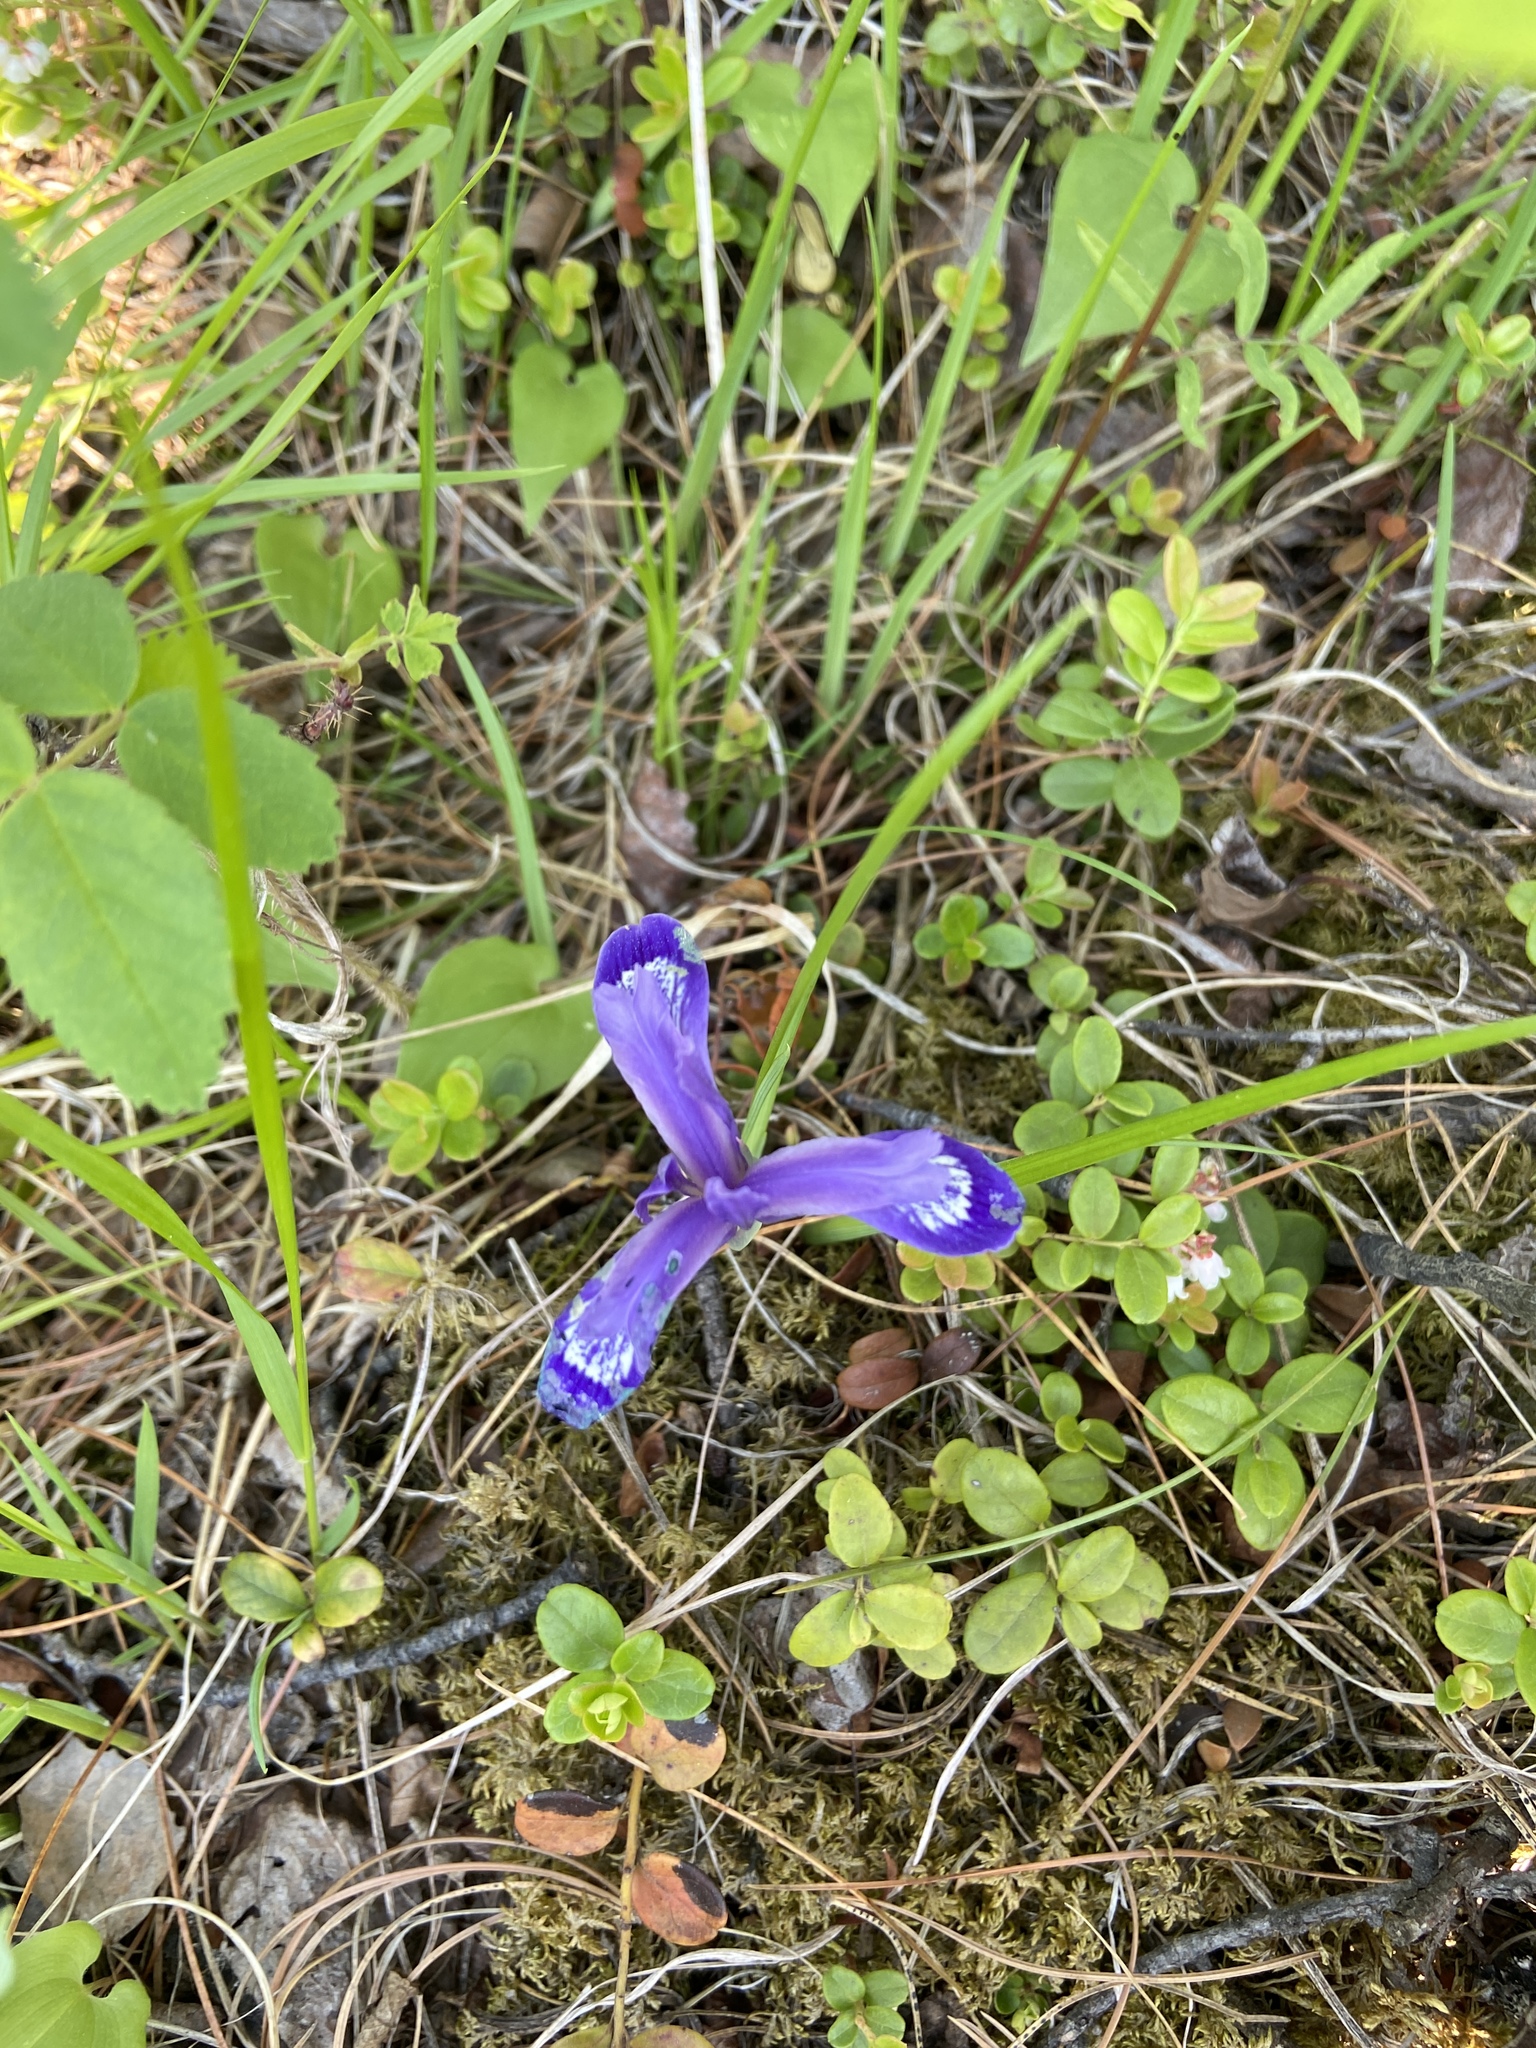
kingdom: Plantae
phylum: Tracheophyta
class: Liliopsida
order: Asparagales
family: Iridaceae
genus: Iris
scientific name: Iris ruthenica
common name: Purple-bract iris
